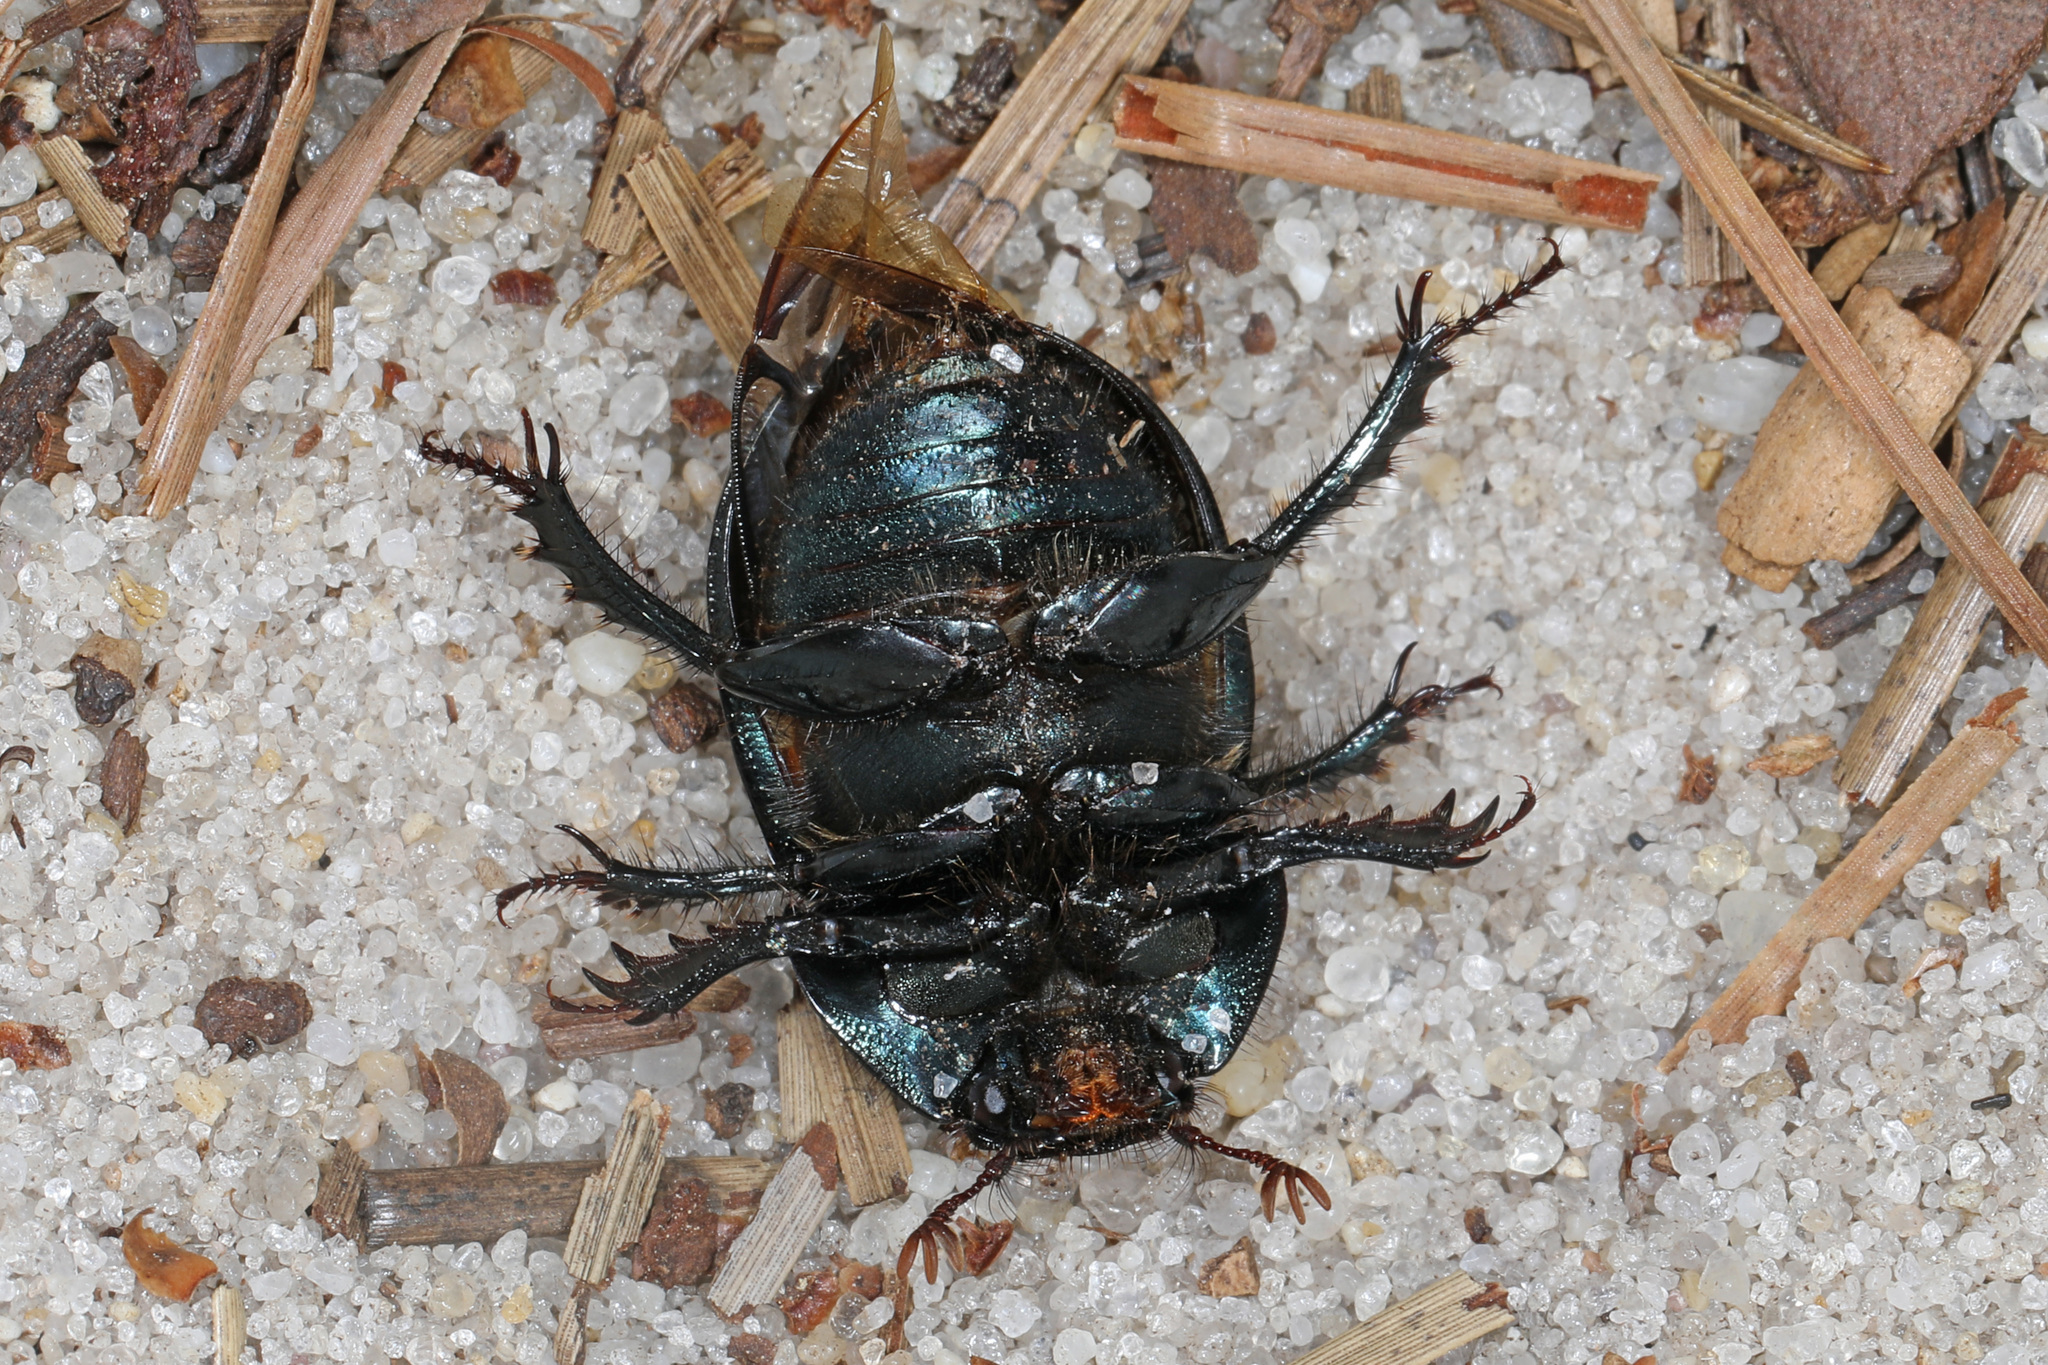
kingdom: Animalia
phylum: Arthropoda
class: Insecta
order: Coleoptera
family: Geotrupidae
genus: Geotrupes
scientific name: Geotrupes splendidus
